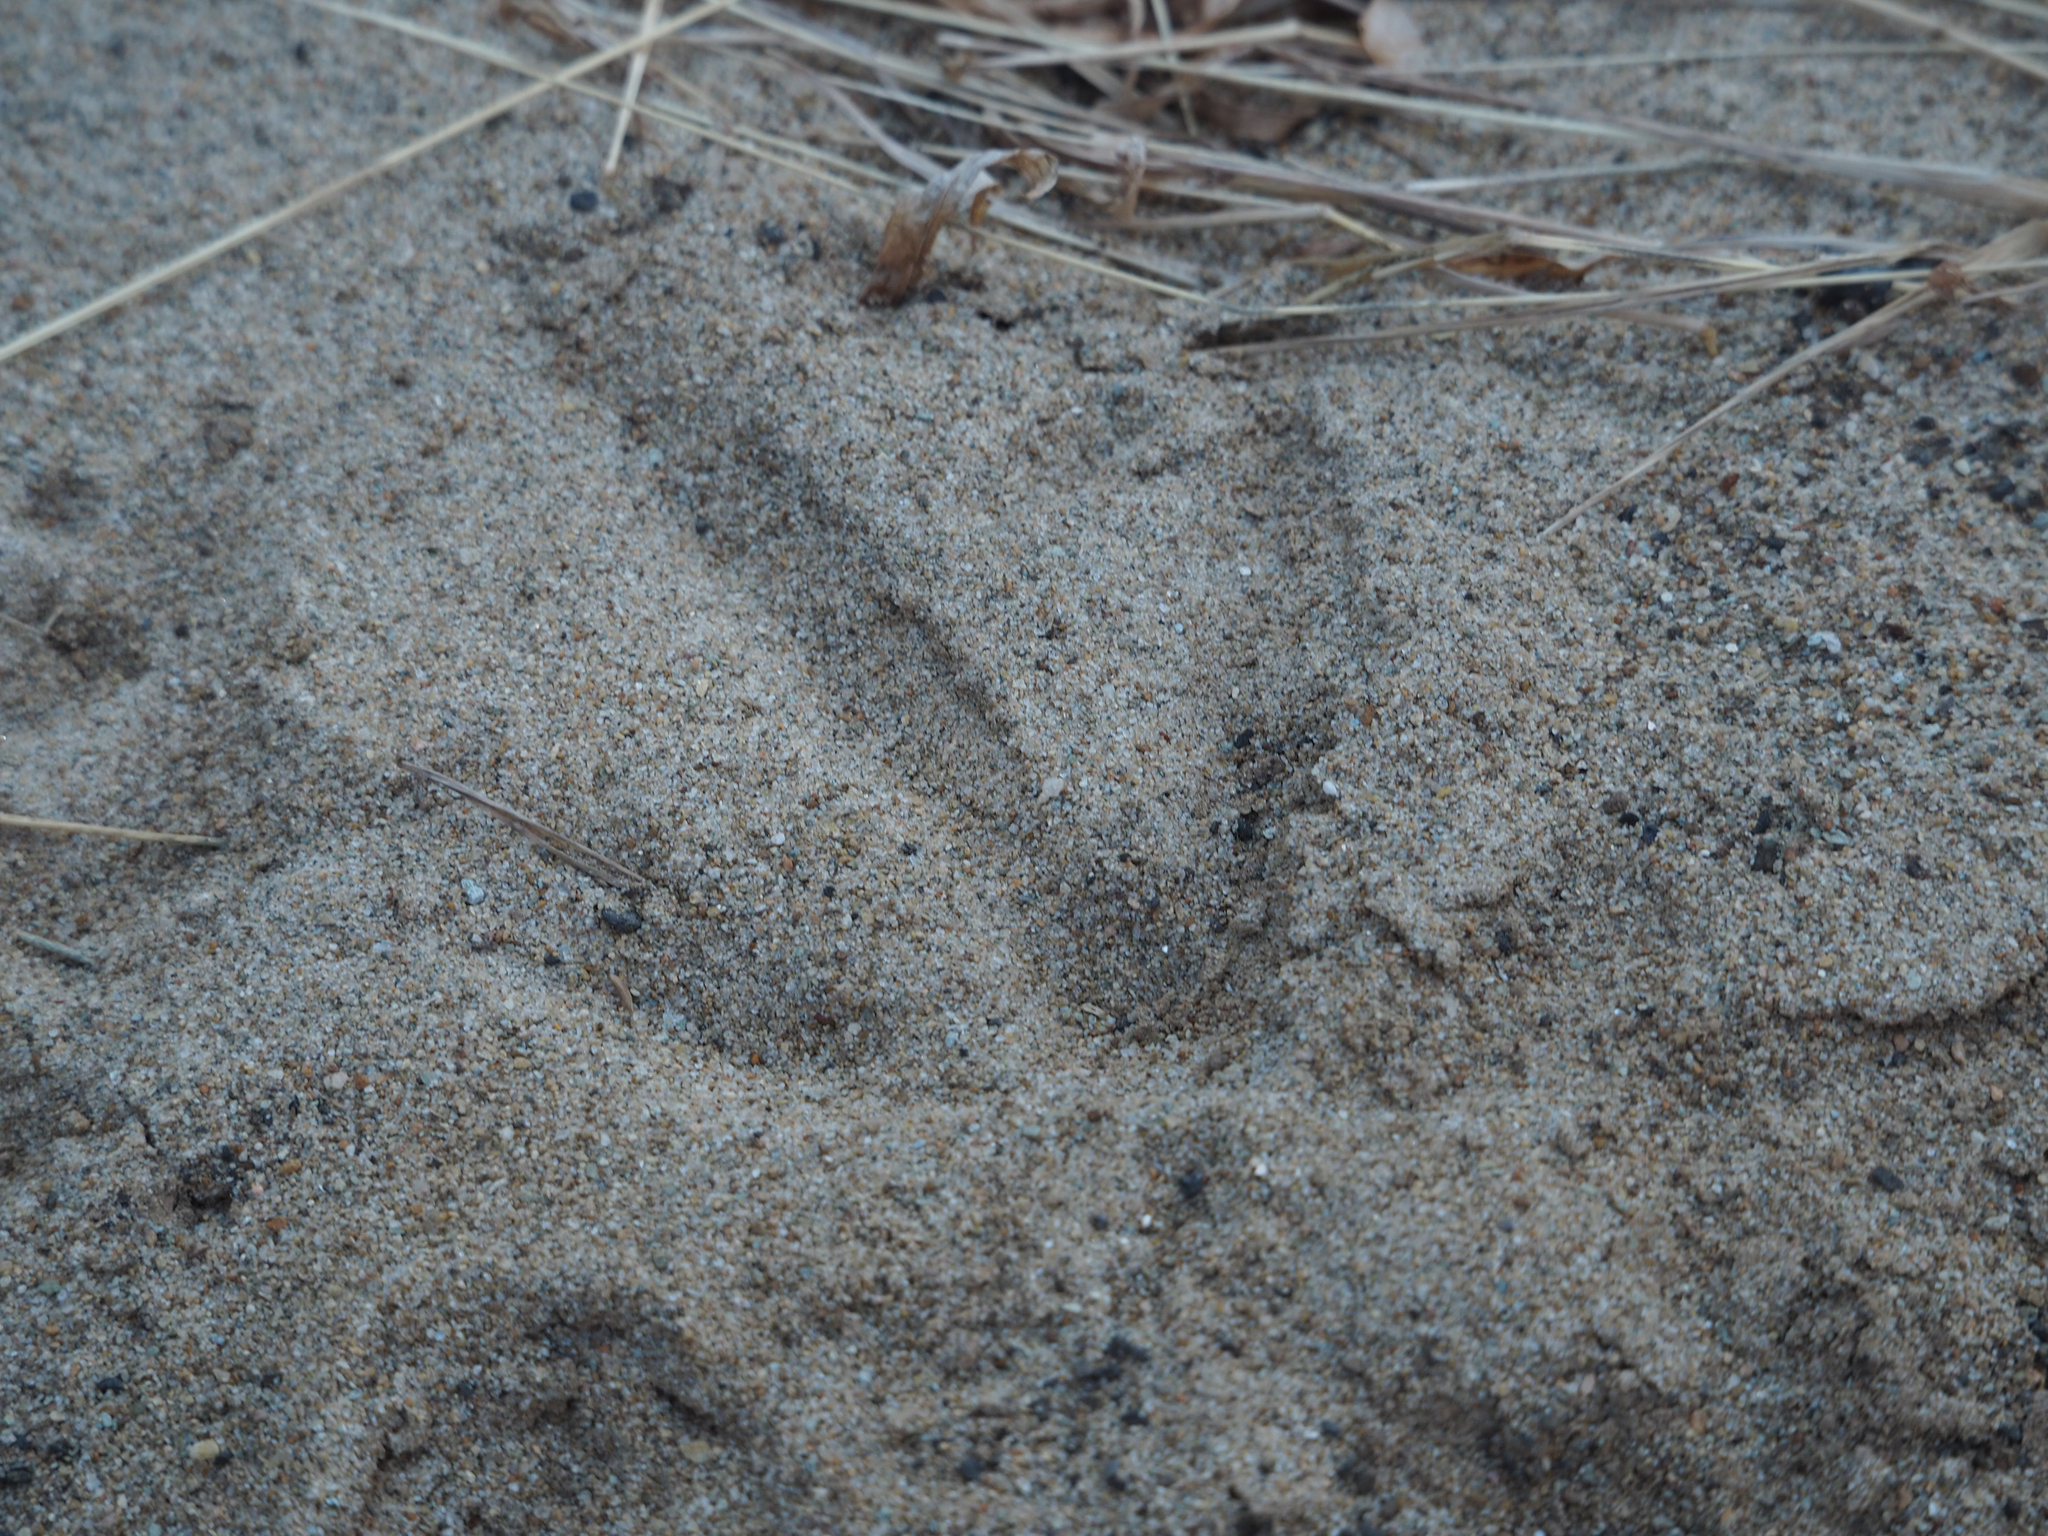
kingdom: Animalia
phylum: Chordata
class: Aves
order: Galliformes
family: Phasianidae
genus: Meleagris
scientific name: Meleagris gallopavo
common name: Wild turkey
